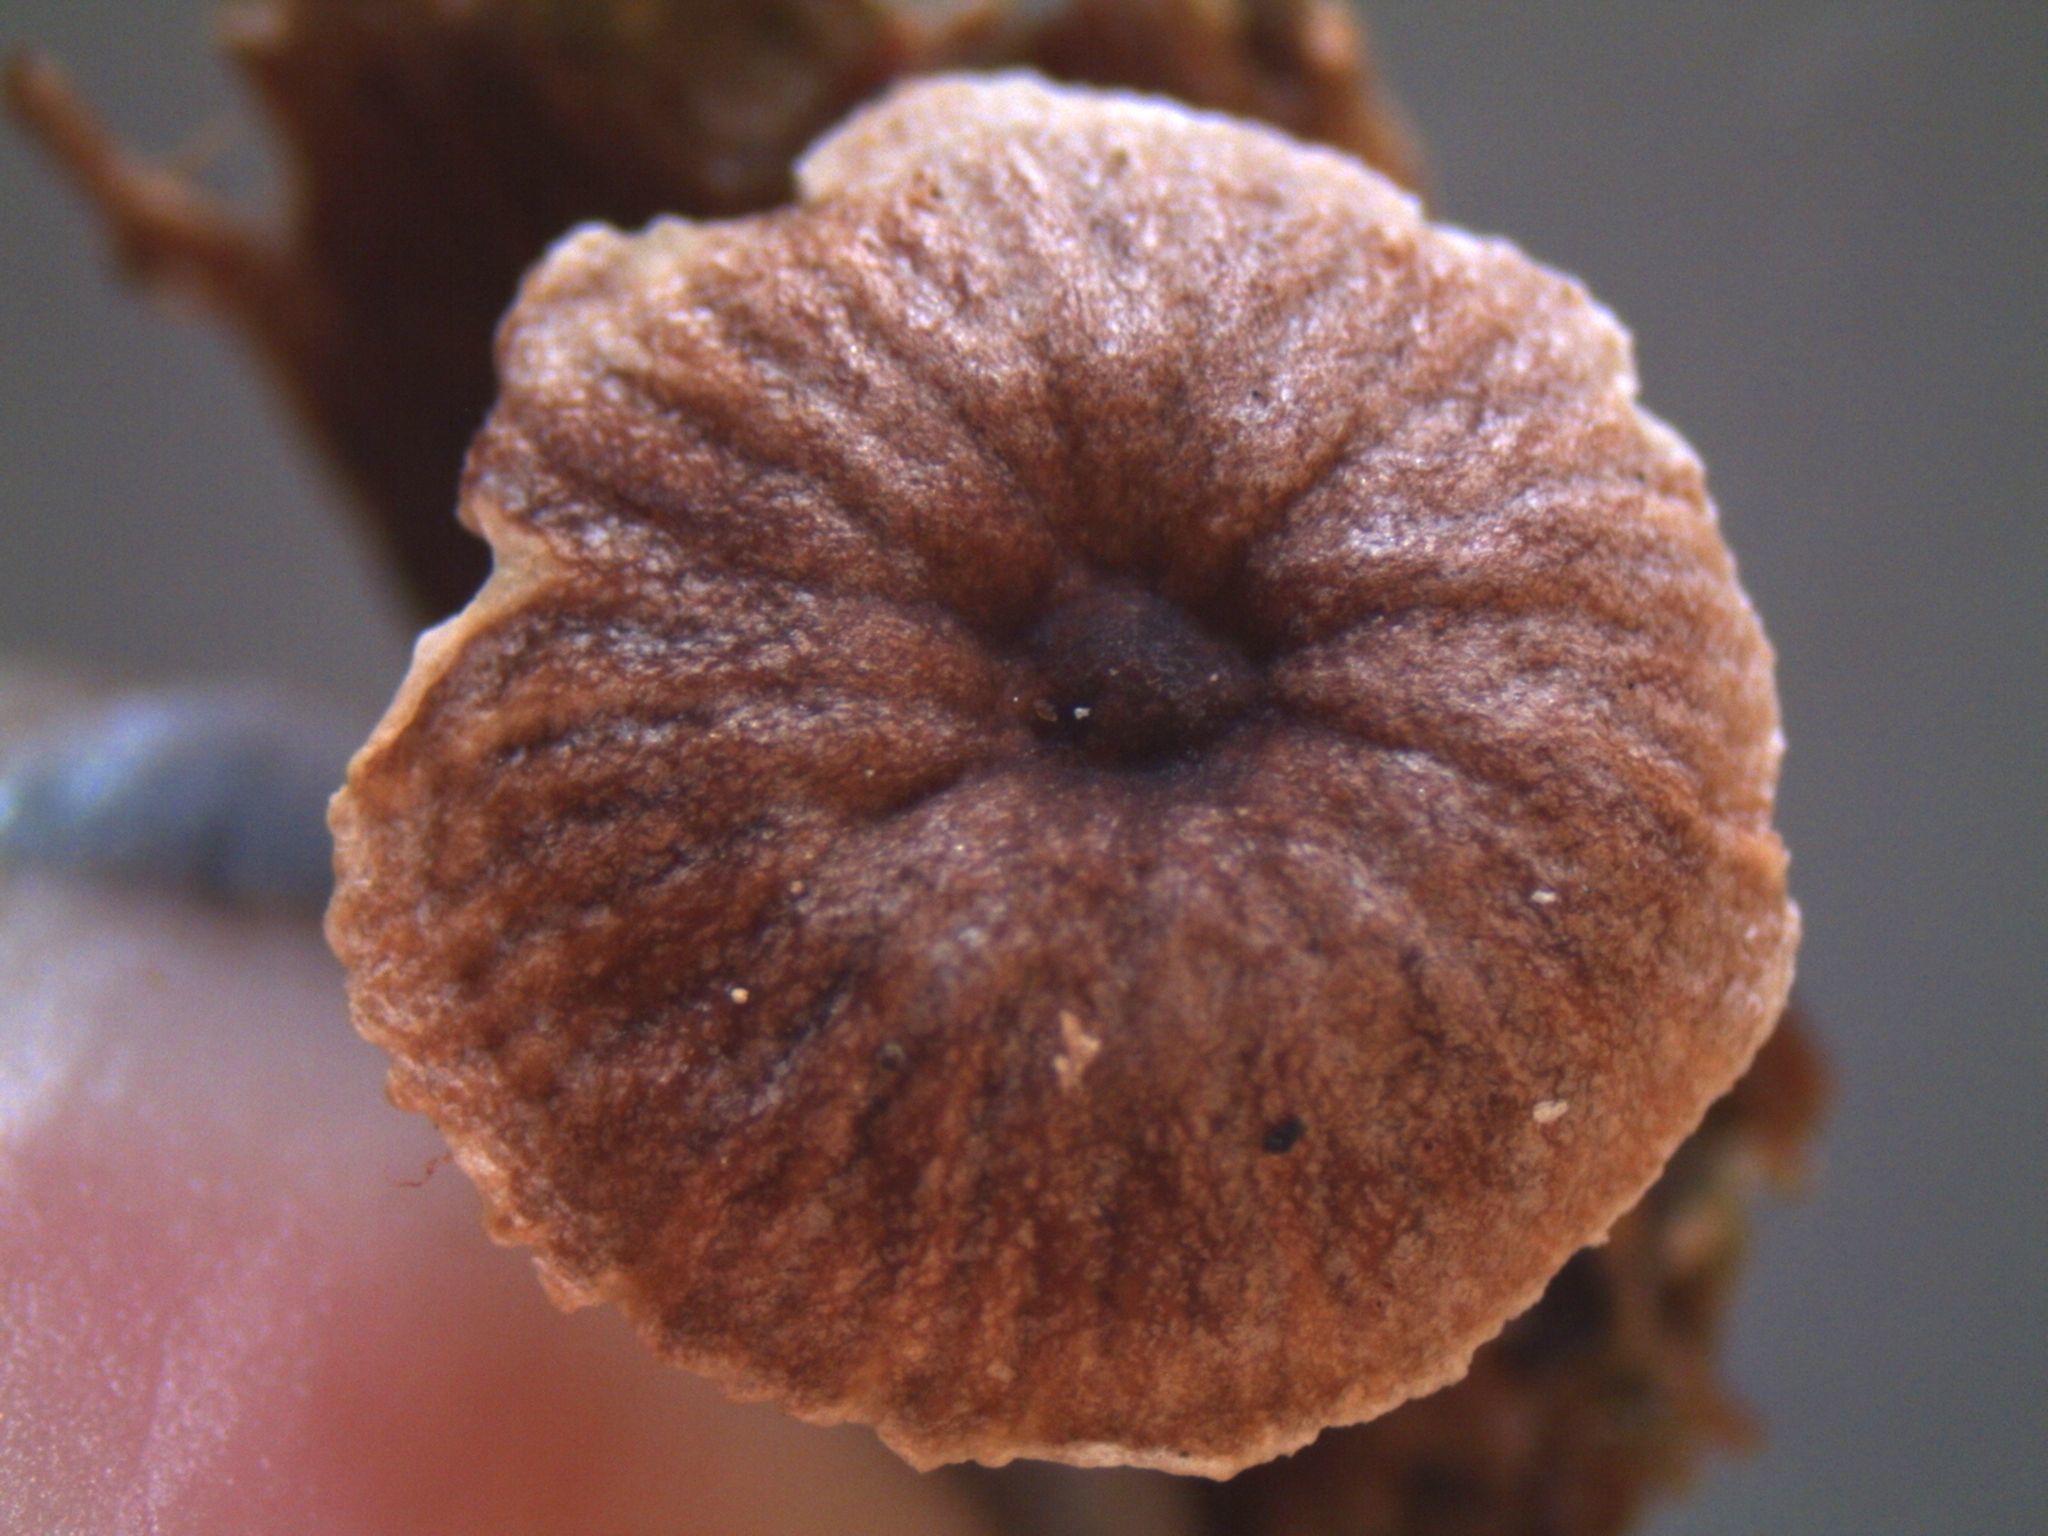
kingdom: Fungi
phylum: Basidiomycota
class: Agaricomycetes
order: Agaricales
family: Omphalotaceae
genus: Gymnopus
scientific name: Gymnopus imbricatus
